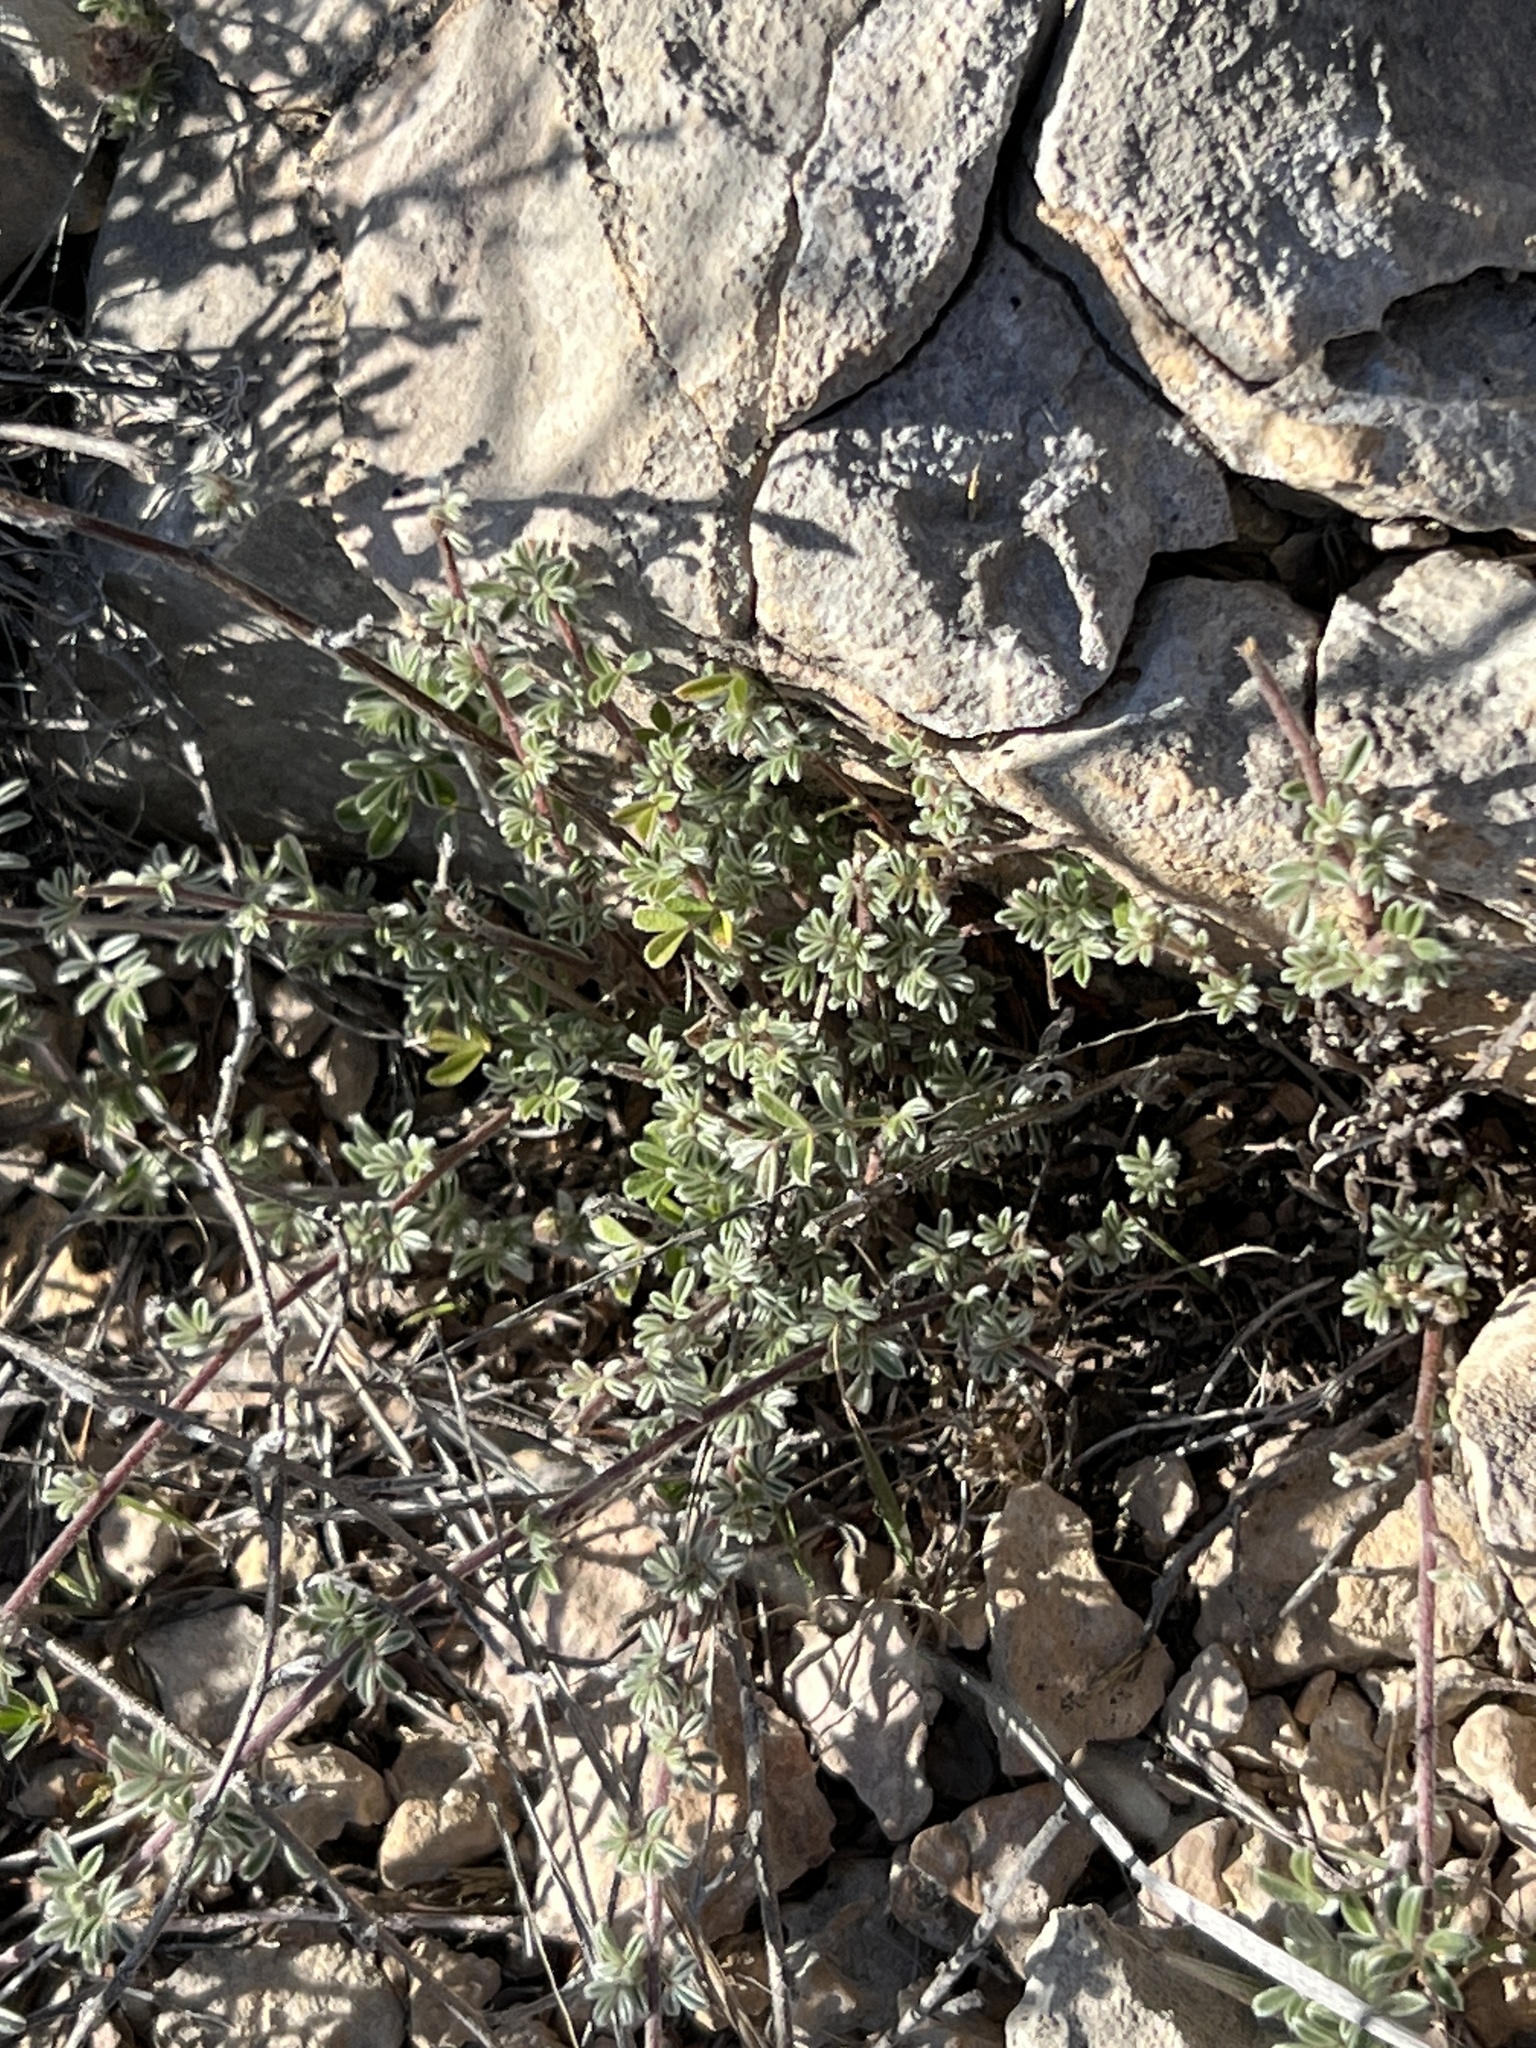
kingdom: Plantae
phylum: Tracheophyta
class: Magnoliopsida
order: Fabales
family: Fabaceae
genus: Dalea
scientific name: Dalea greggii
